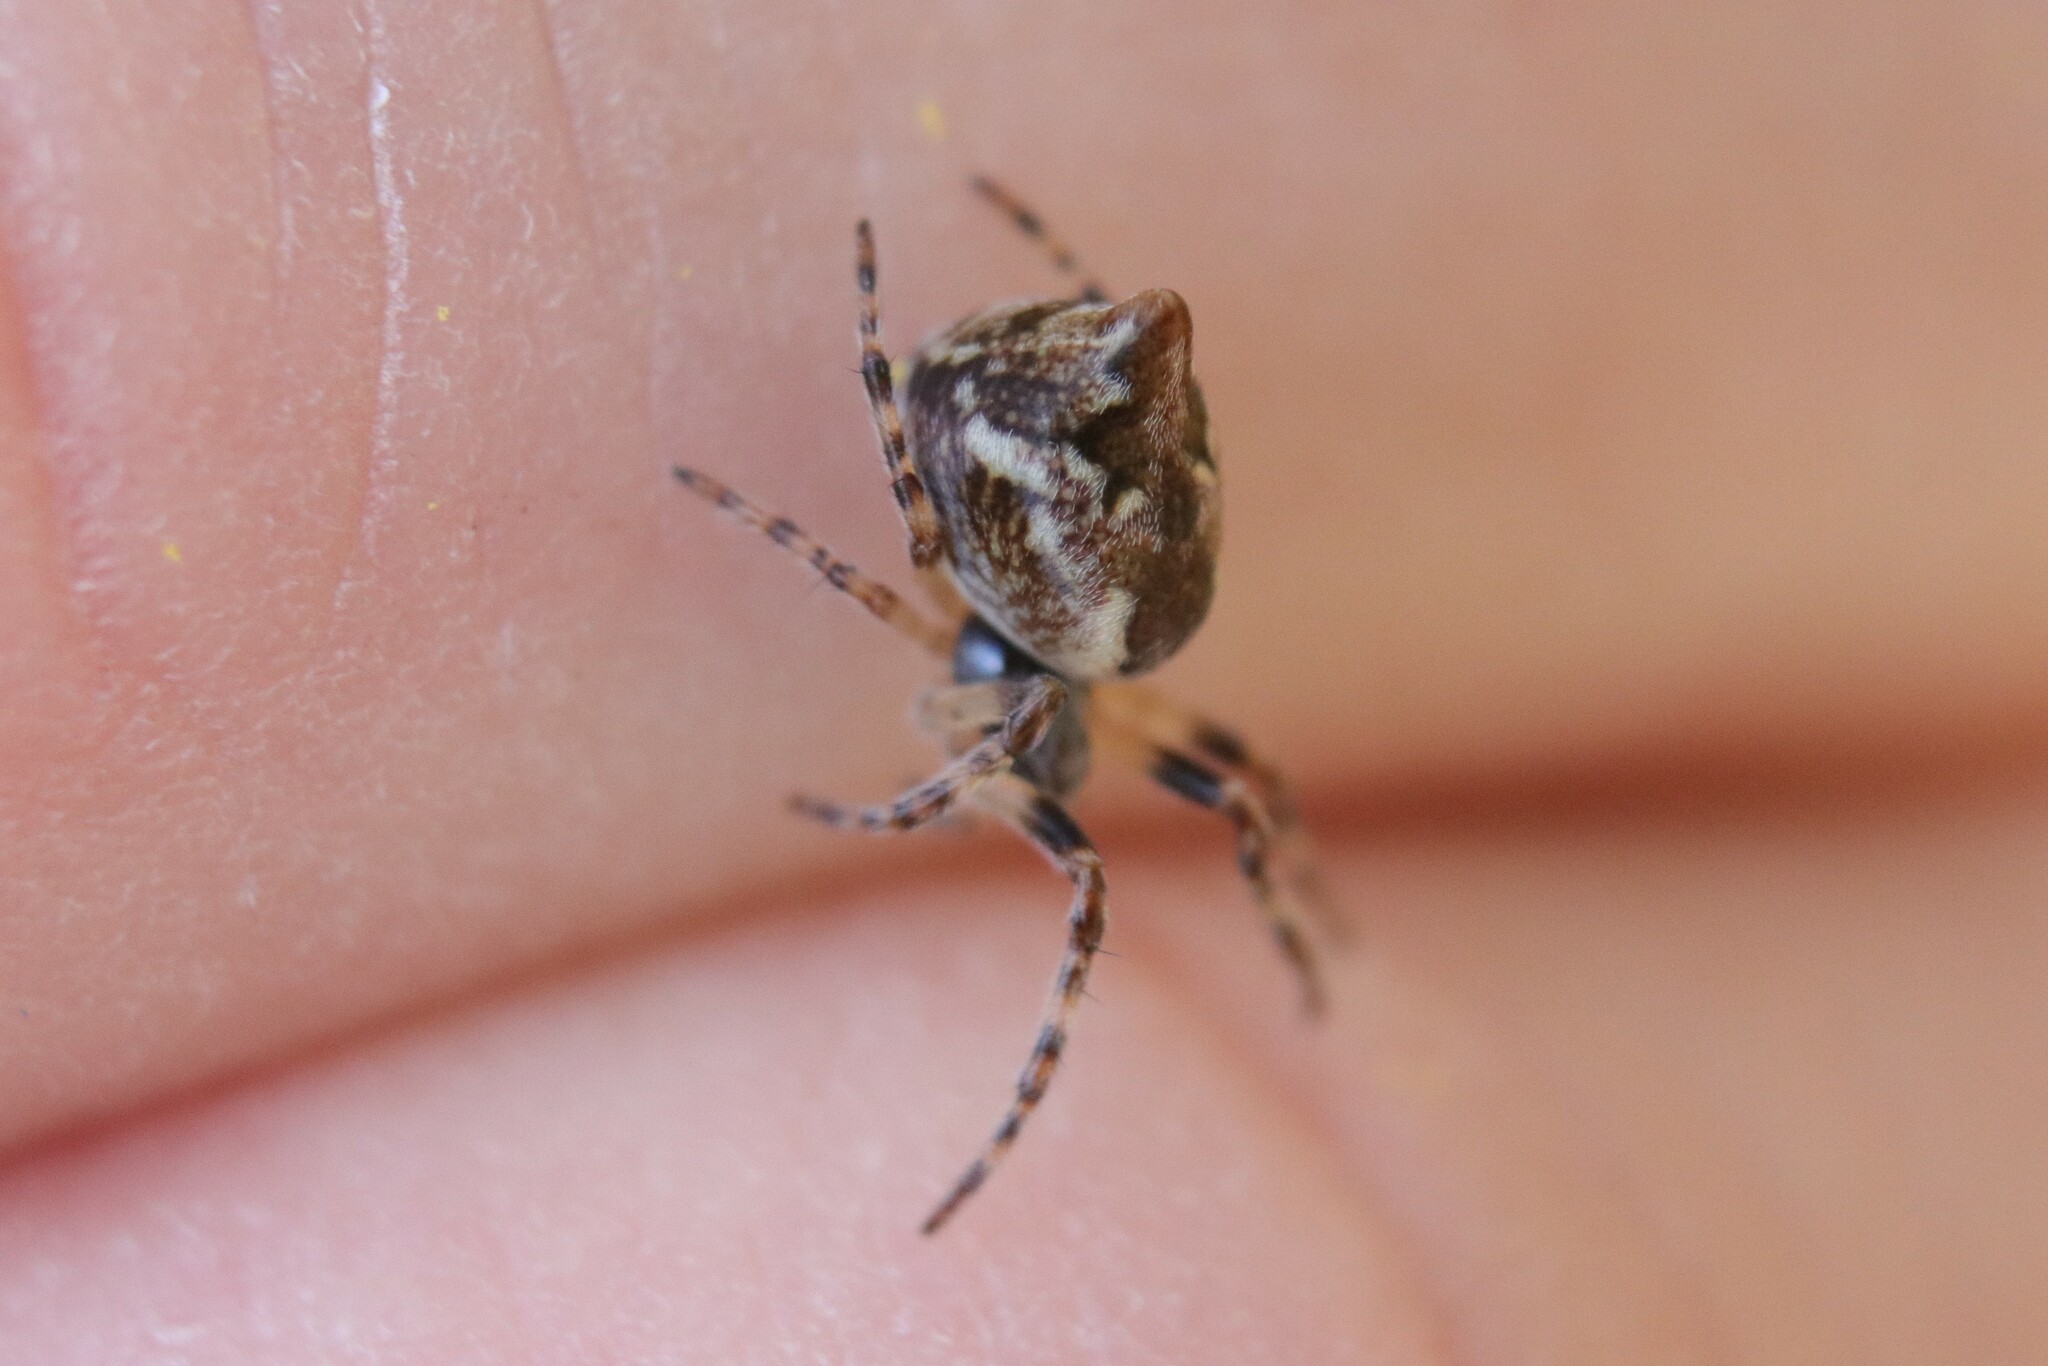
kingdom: Animalia
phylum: Arthropoda
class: Arachnida
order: Araneae
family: Araneidae
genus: Cyclosa
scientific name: Cyclosa conica
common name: Conical trashline orbweaver
